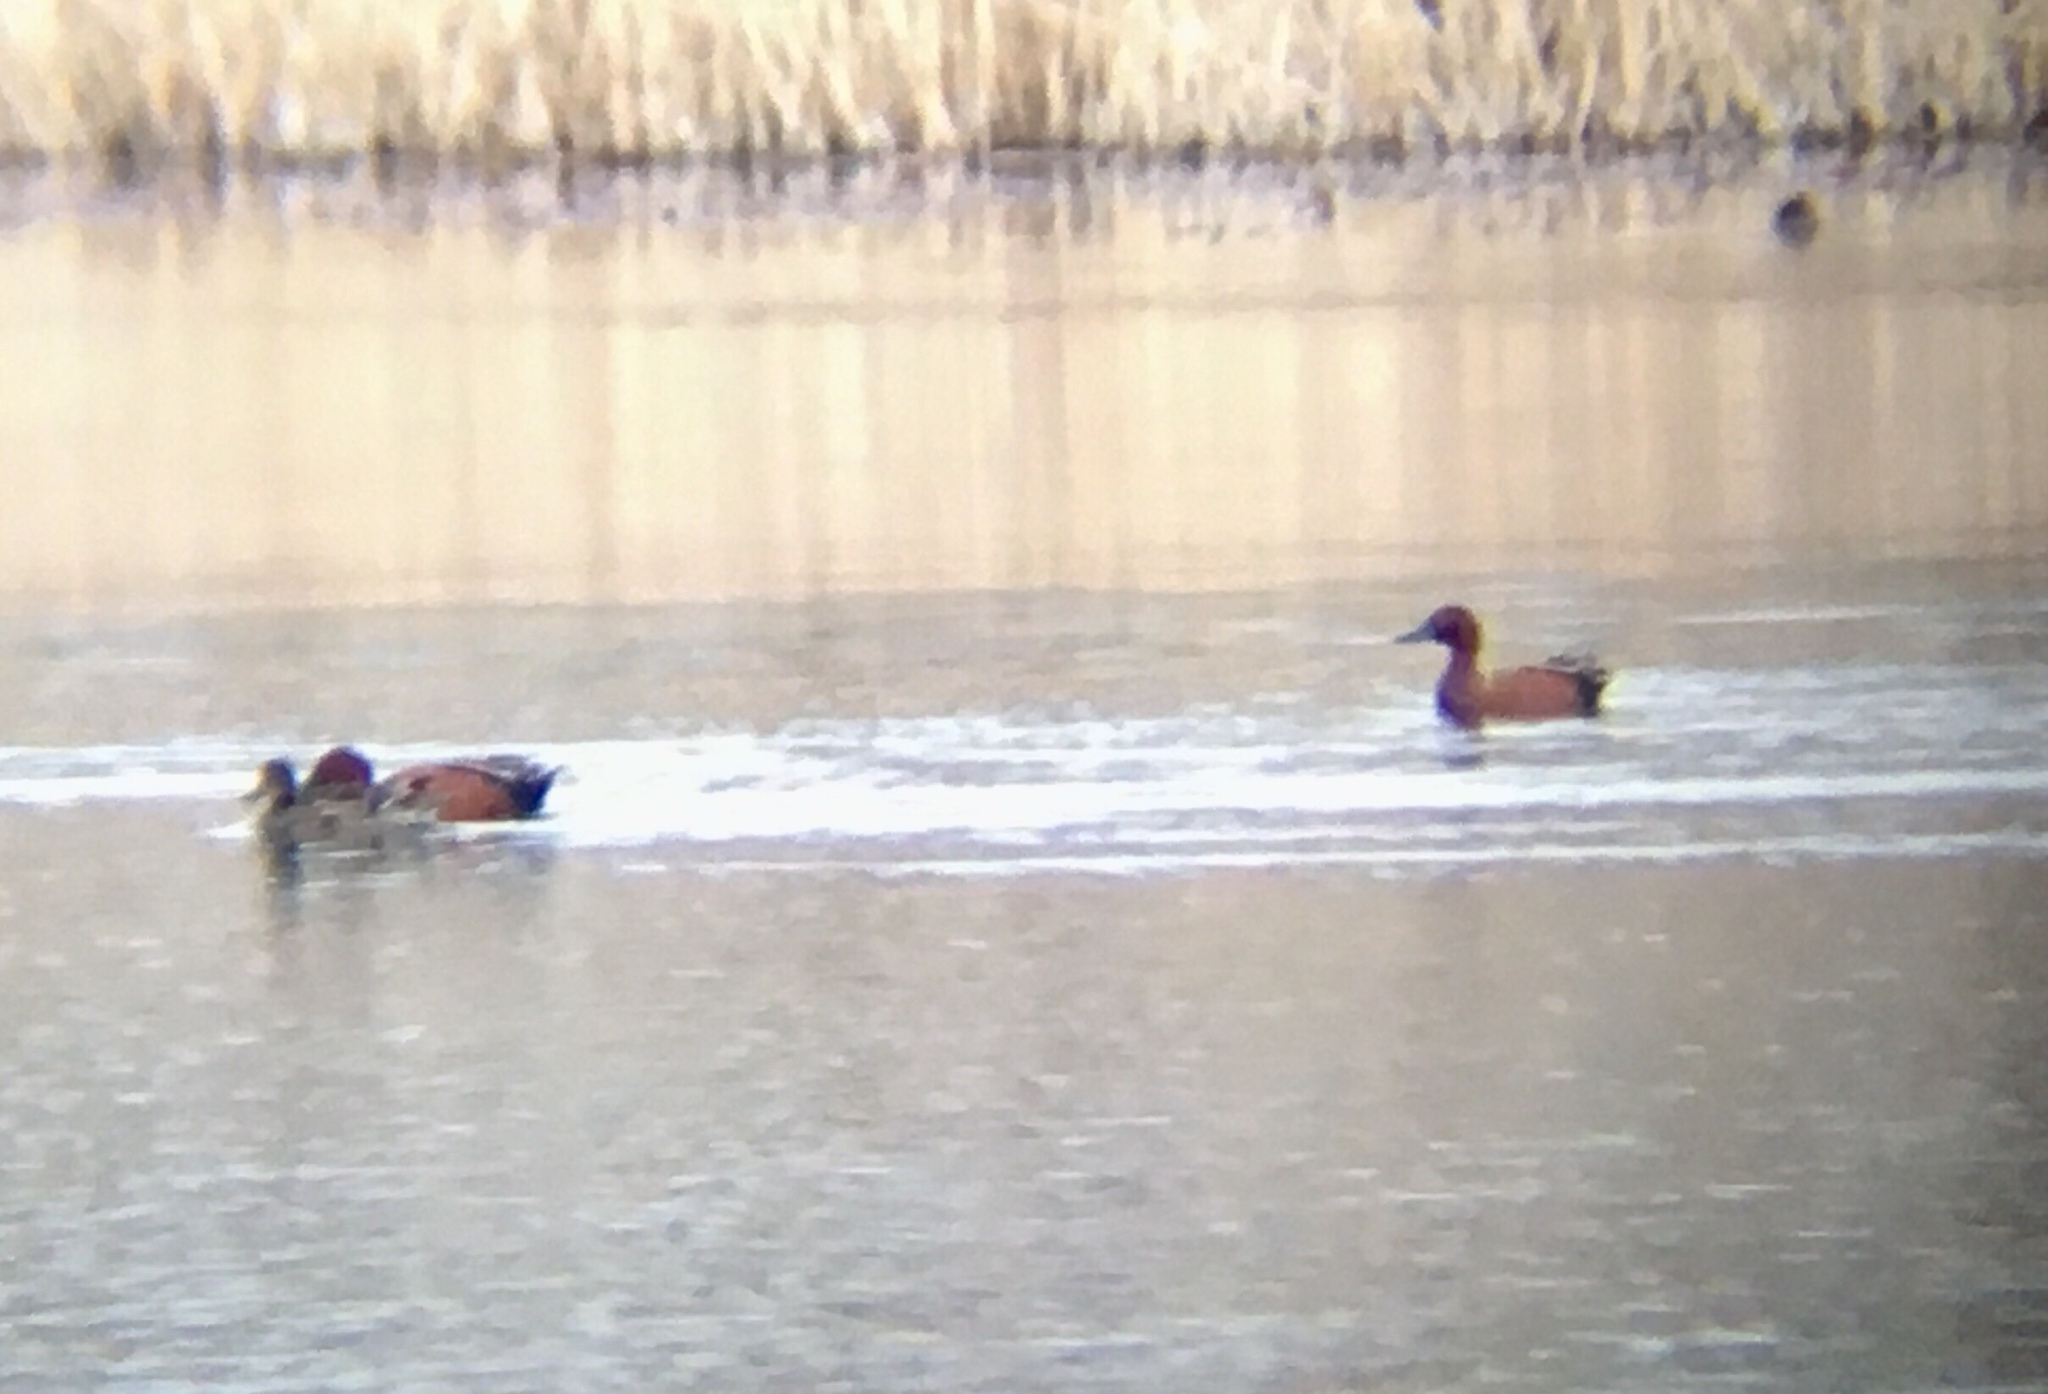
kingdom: Animalia
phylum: Chordata
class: Aves
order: Anseriformes
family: Anatidae
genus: Spatula
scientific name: Spatula cyanoptera
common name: Cinnamon teal
